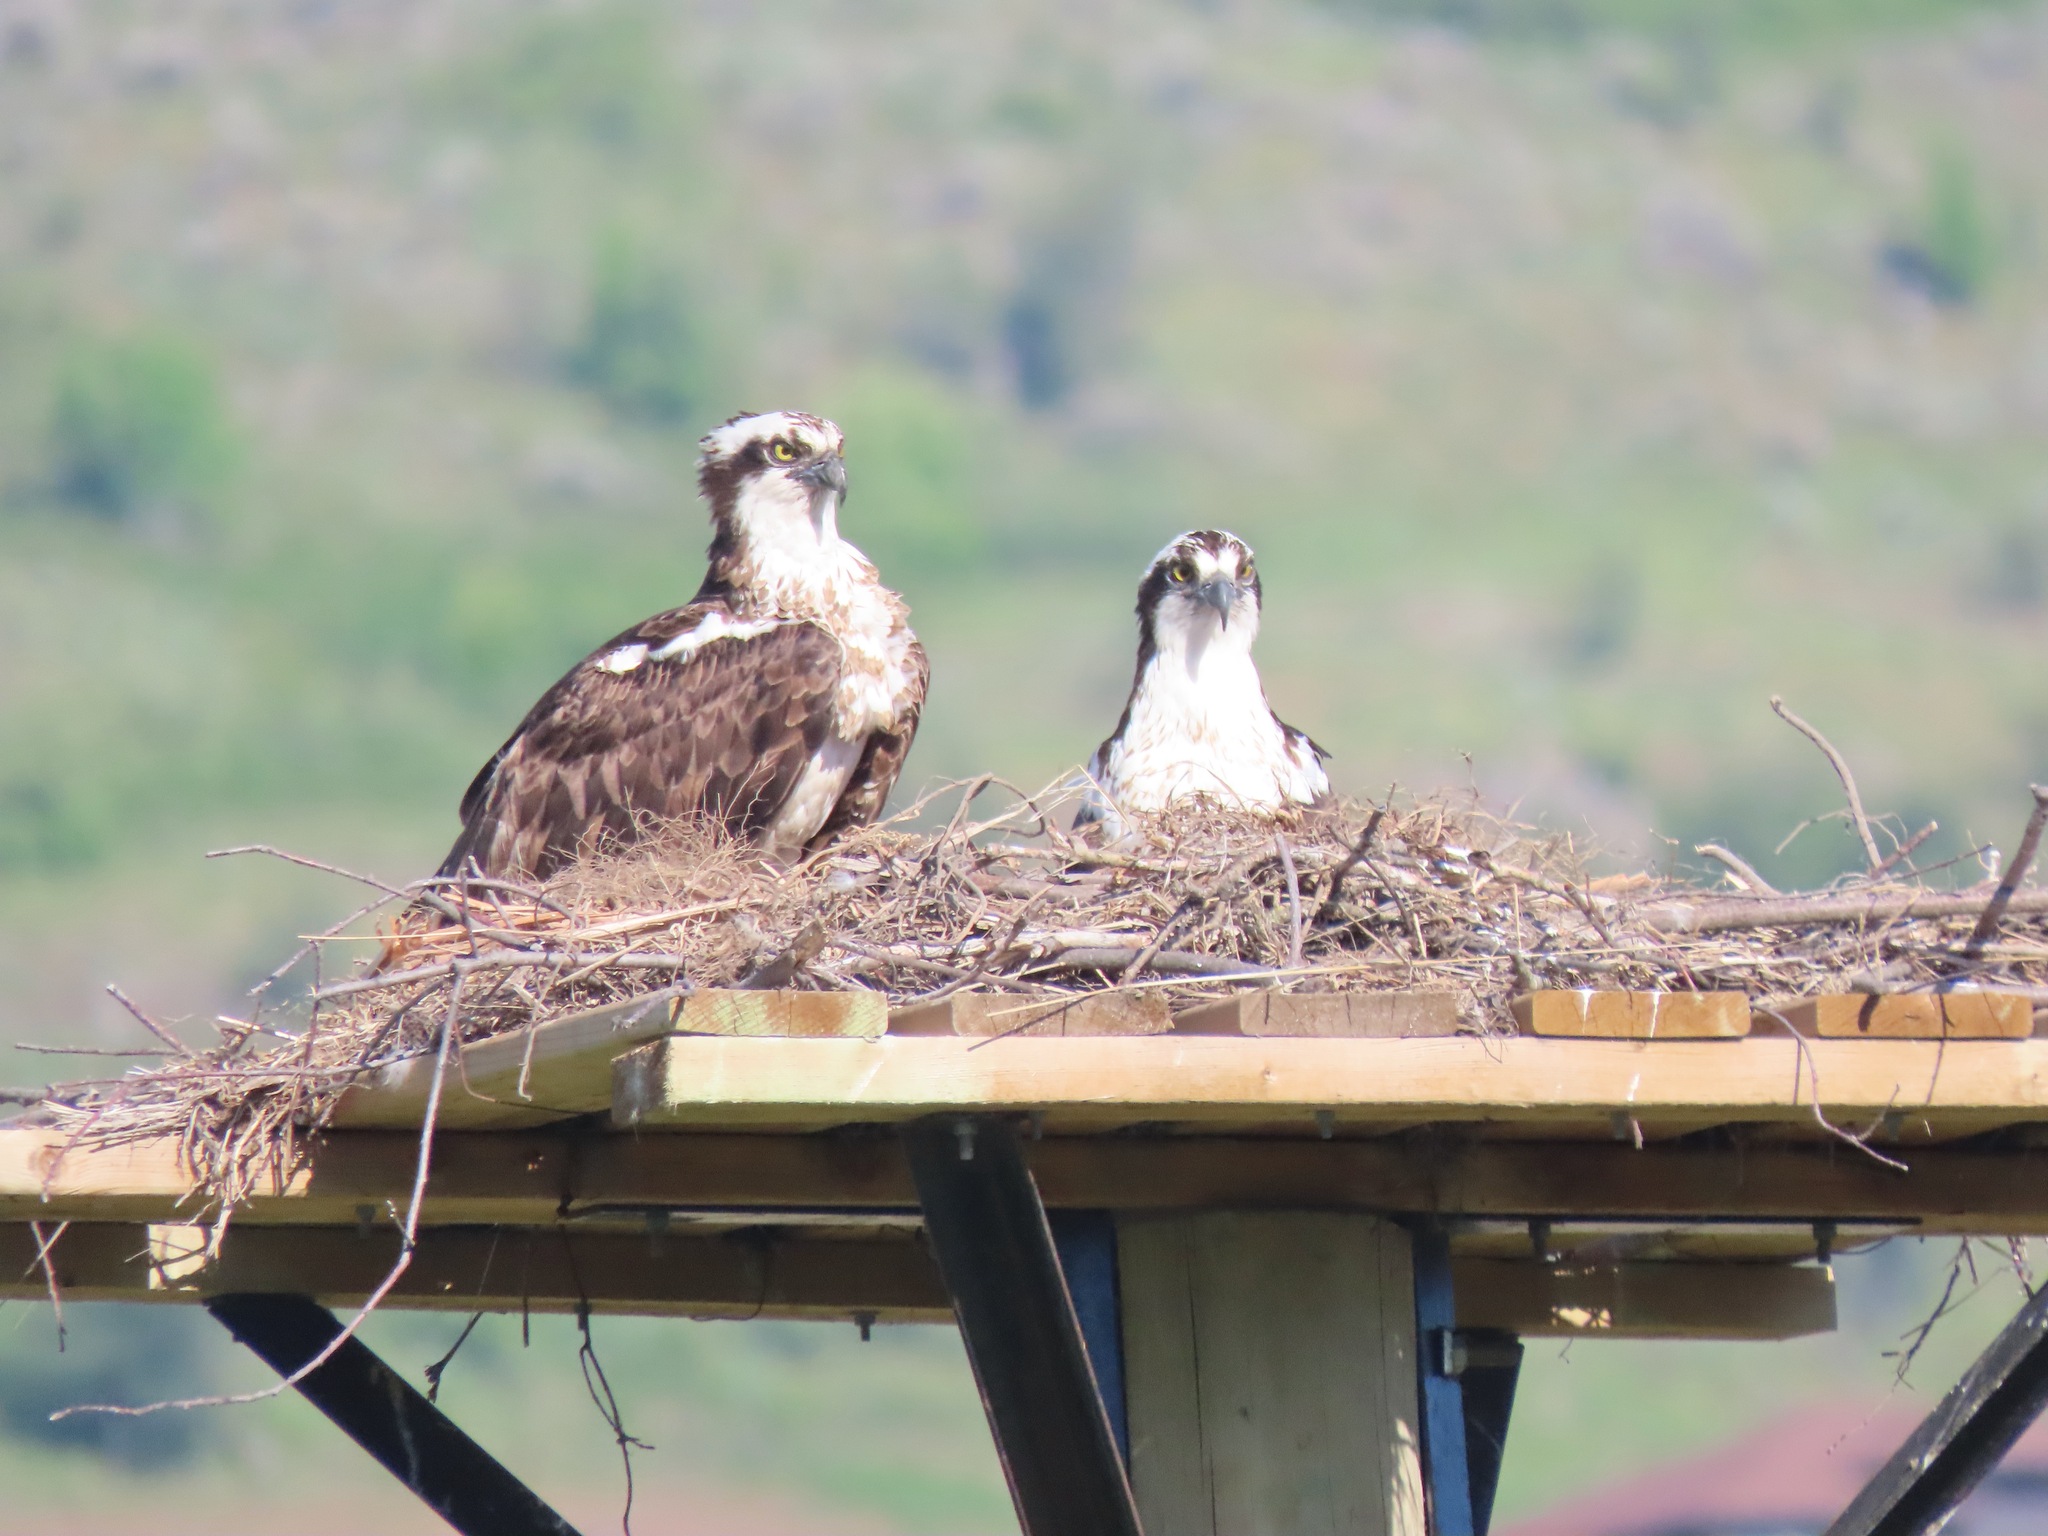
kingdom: Animalia
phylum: Chordata
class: Aves
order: Accipitriformes
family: Pandionidae
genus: Pandion
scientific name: Pandion haliaetus
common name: Osprey
